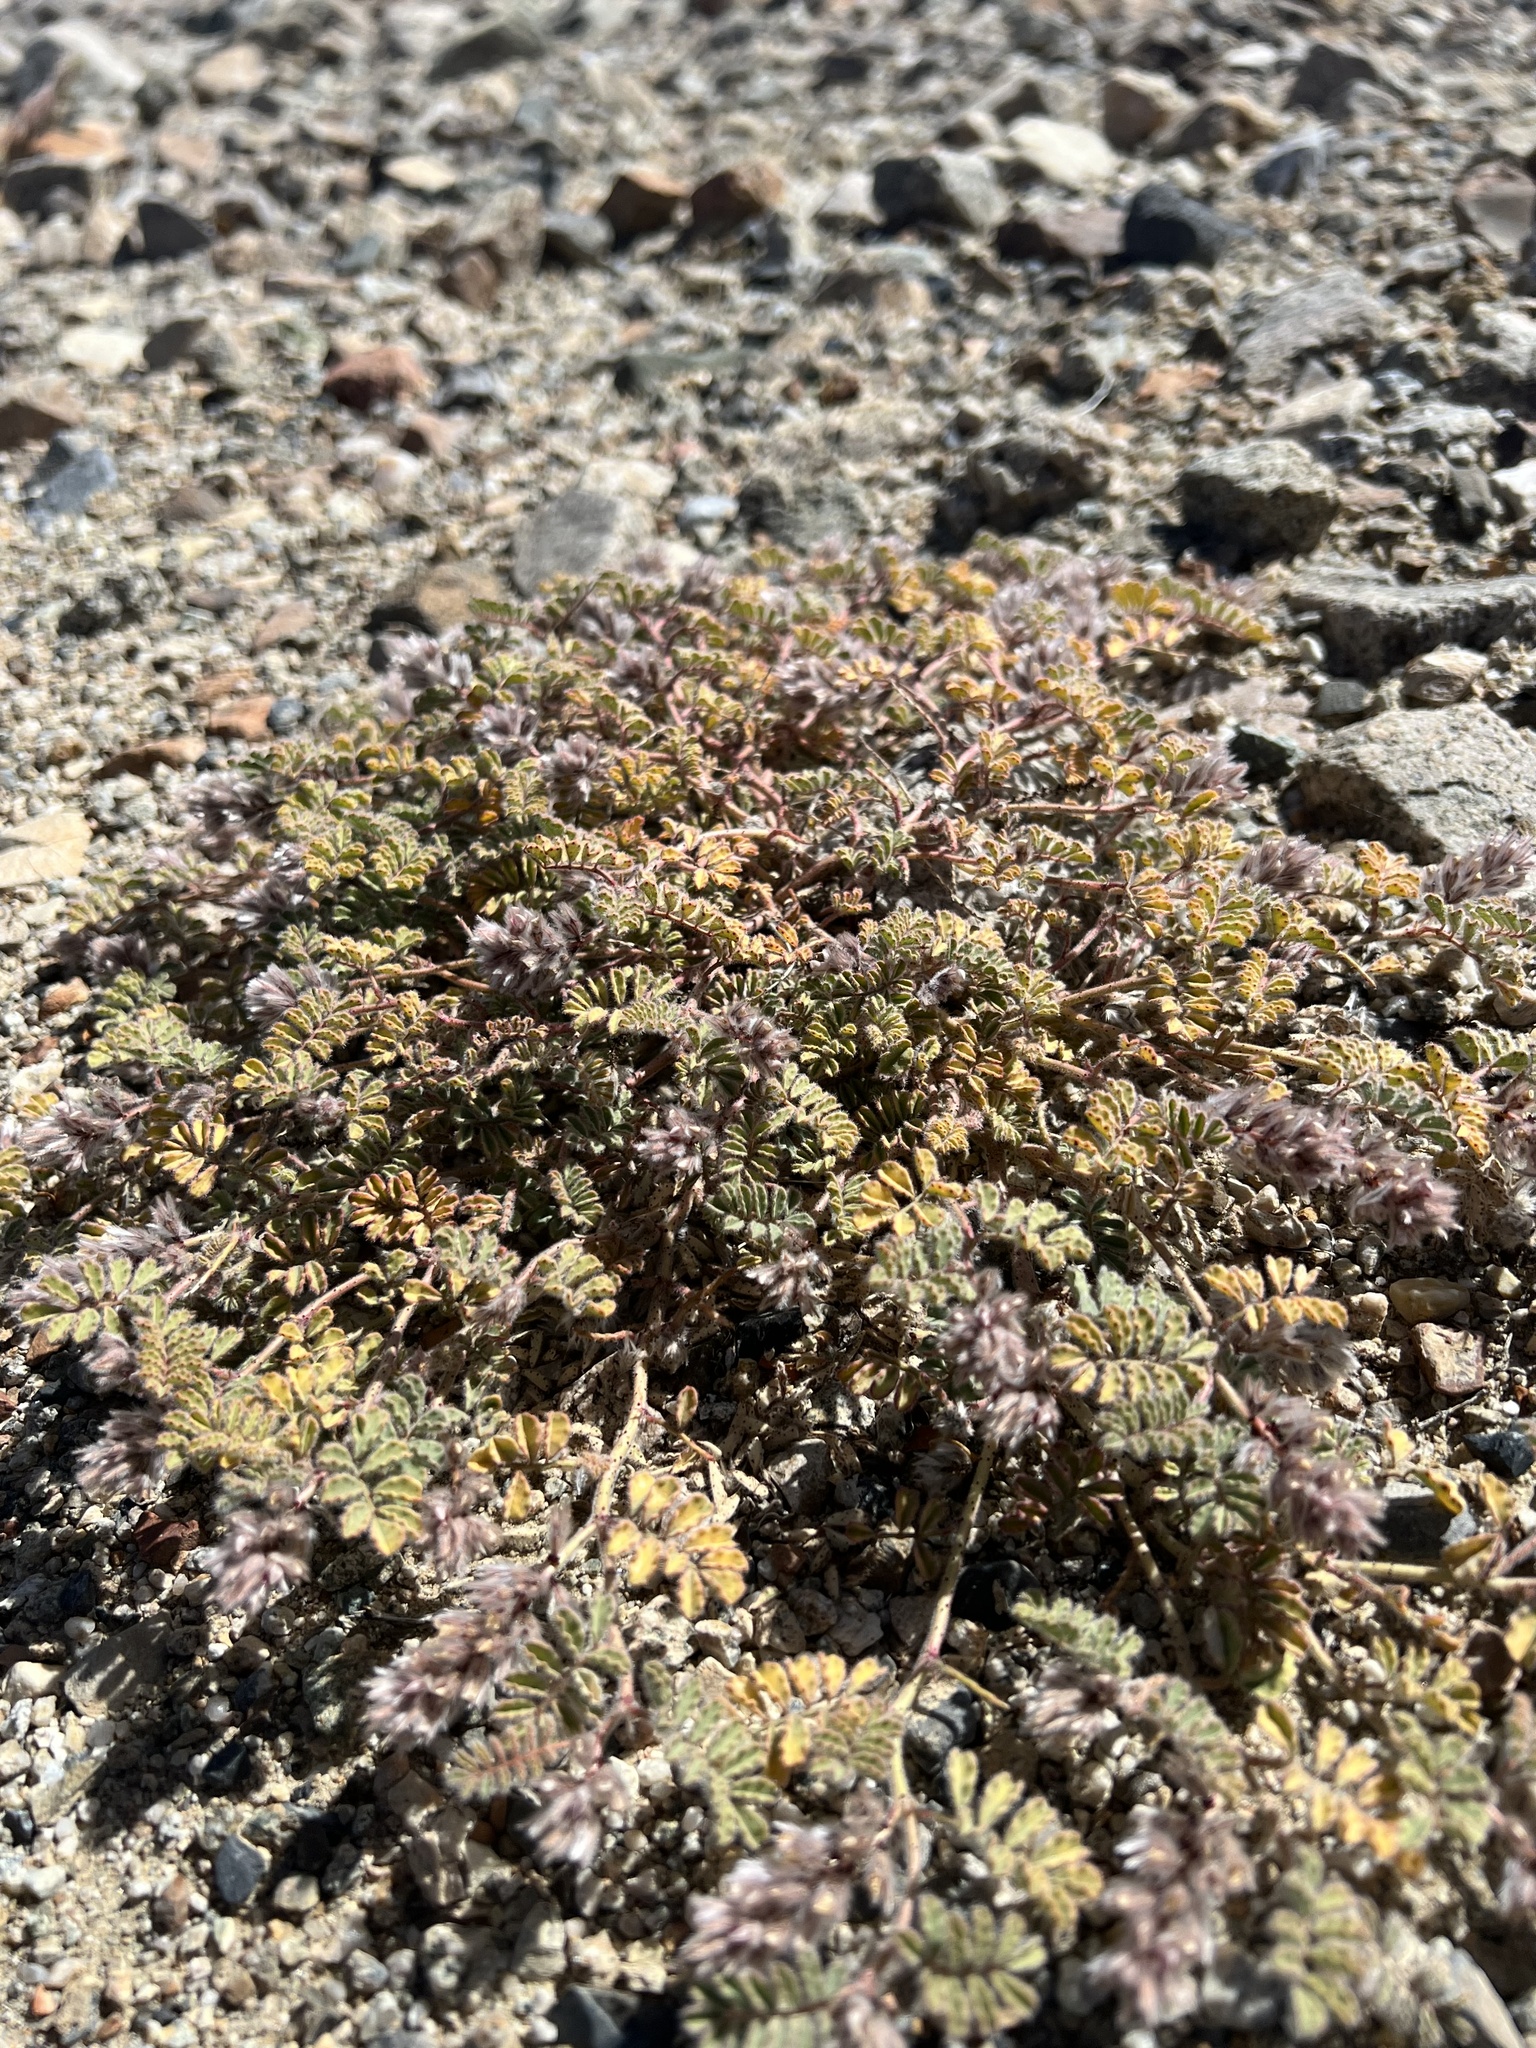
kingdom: Plantae
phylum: Tracheophyta
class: Magnoliopsida
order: Fabales
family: Fabaceae
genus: Dalea
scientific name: Dalea mollissima
